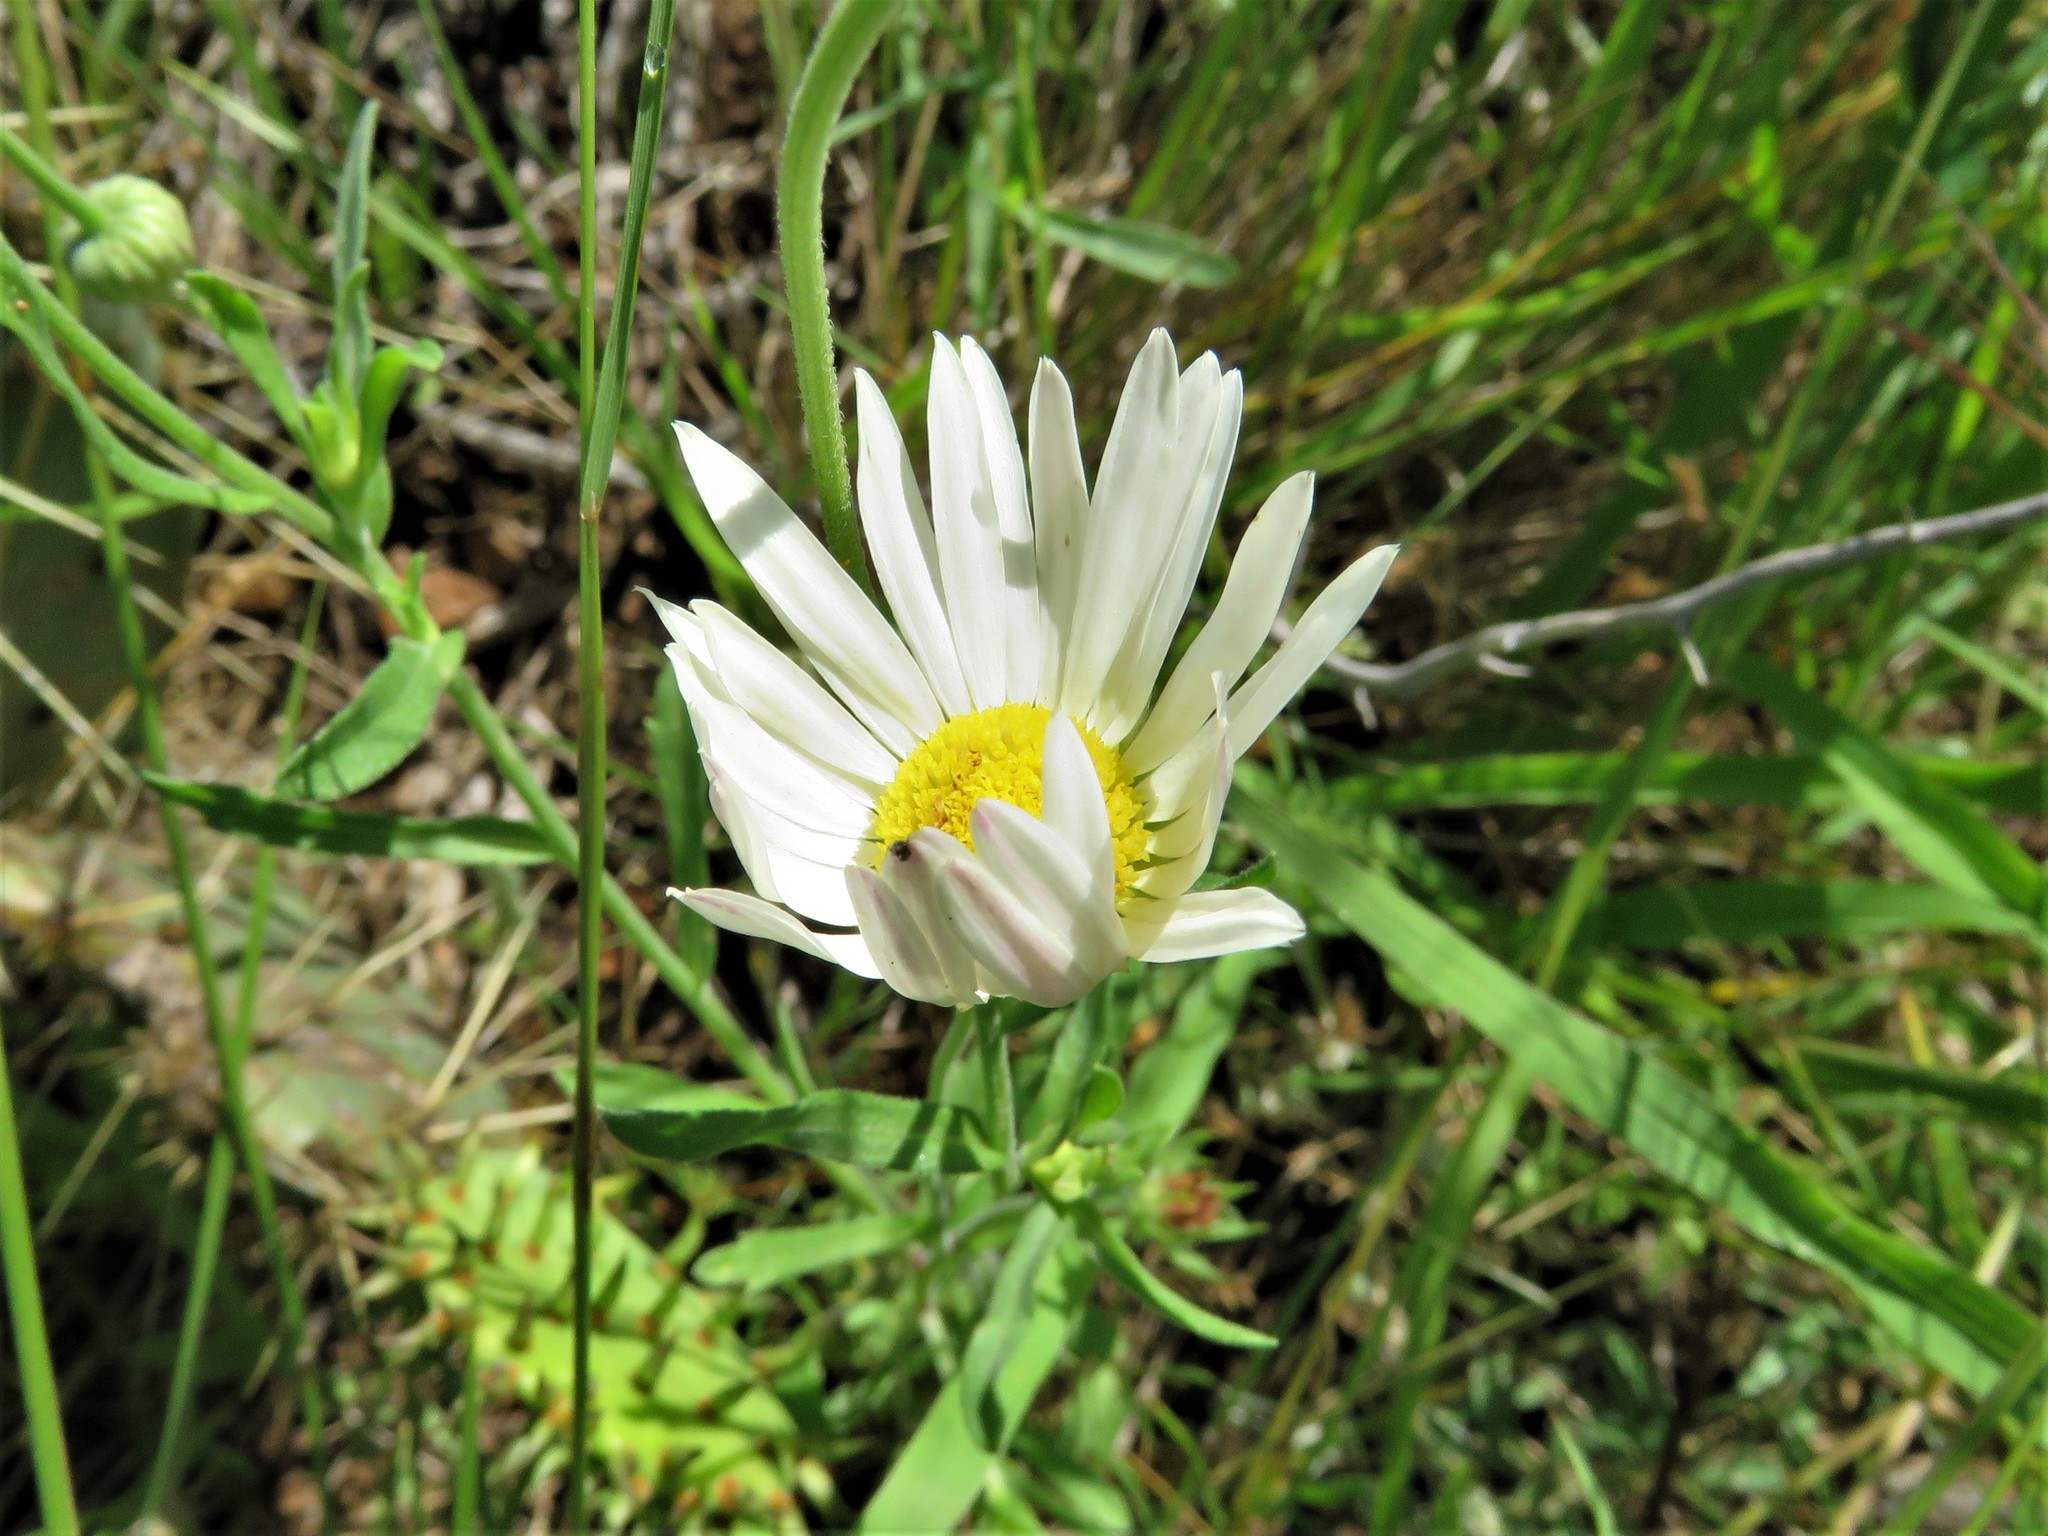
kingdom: Plantae
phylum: Tracheophyta
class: Magnoliopsida
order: Asterales
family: Asteraceae
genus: Aphanostephus
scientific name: Aphanostephus ramosissimus
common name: Plains lazy daisy
